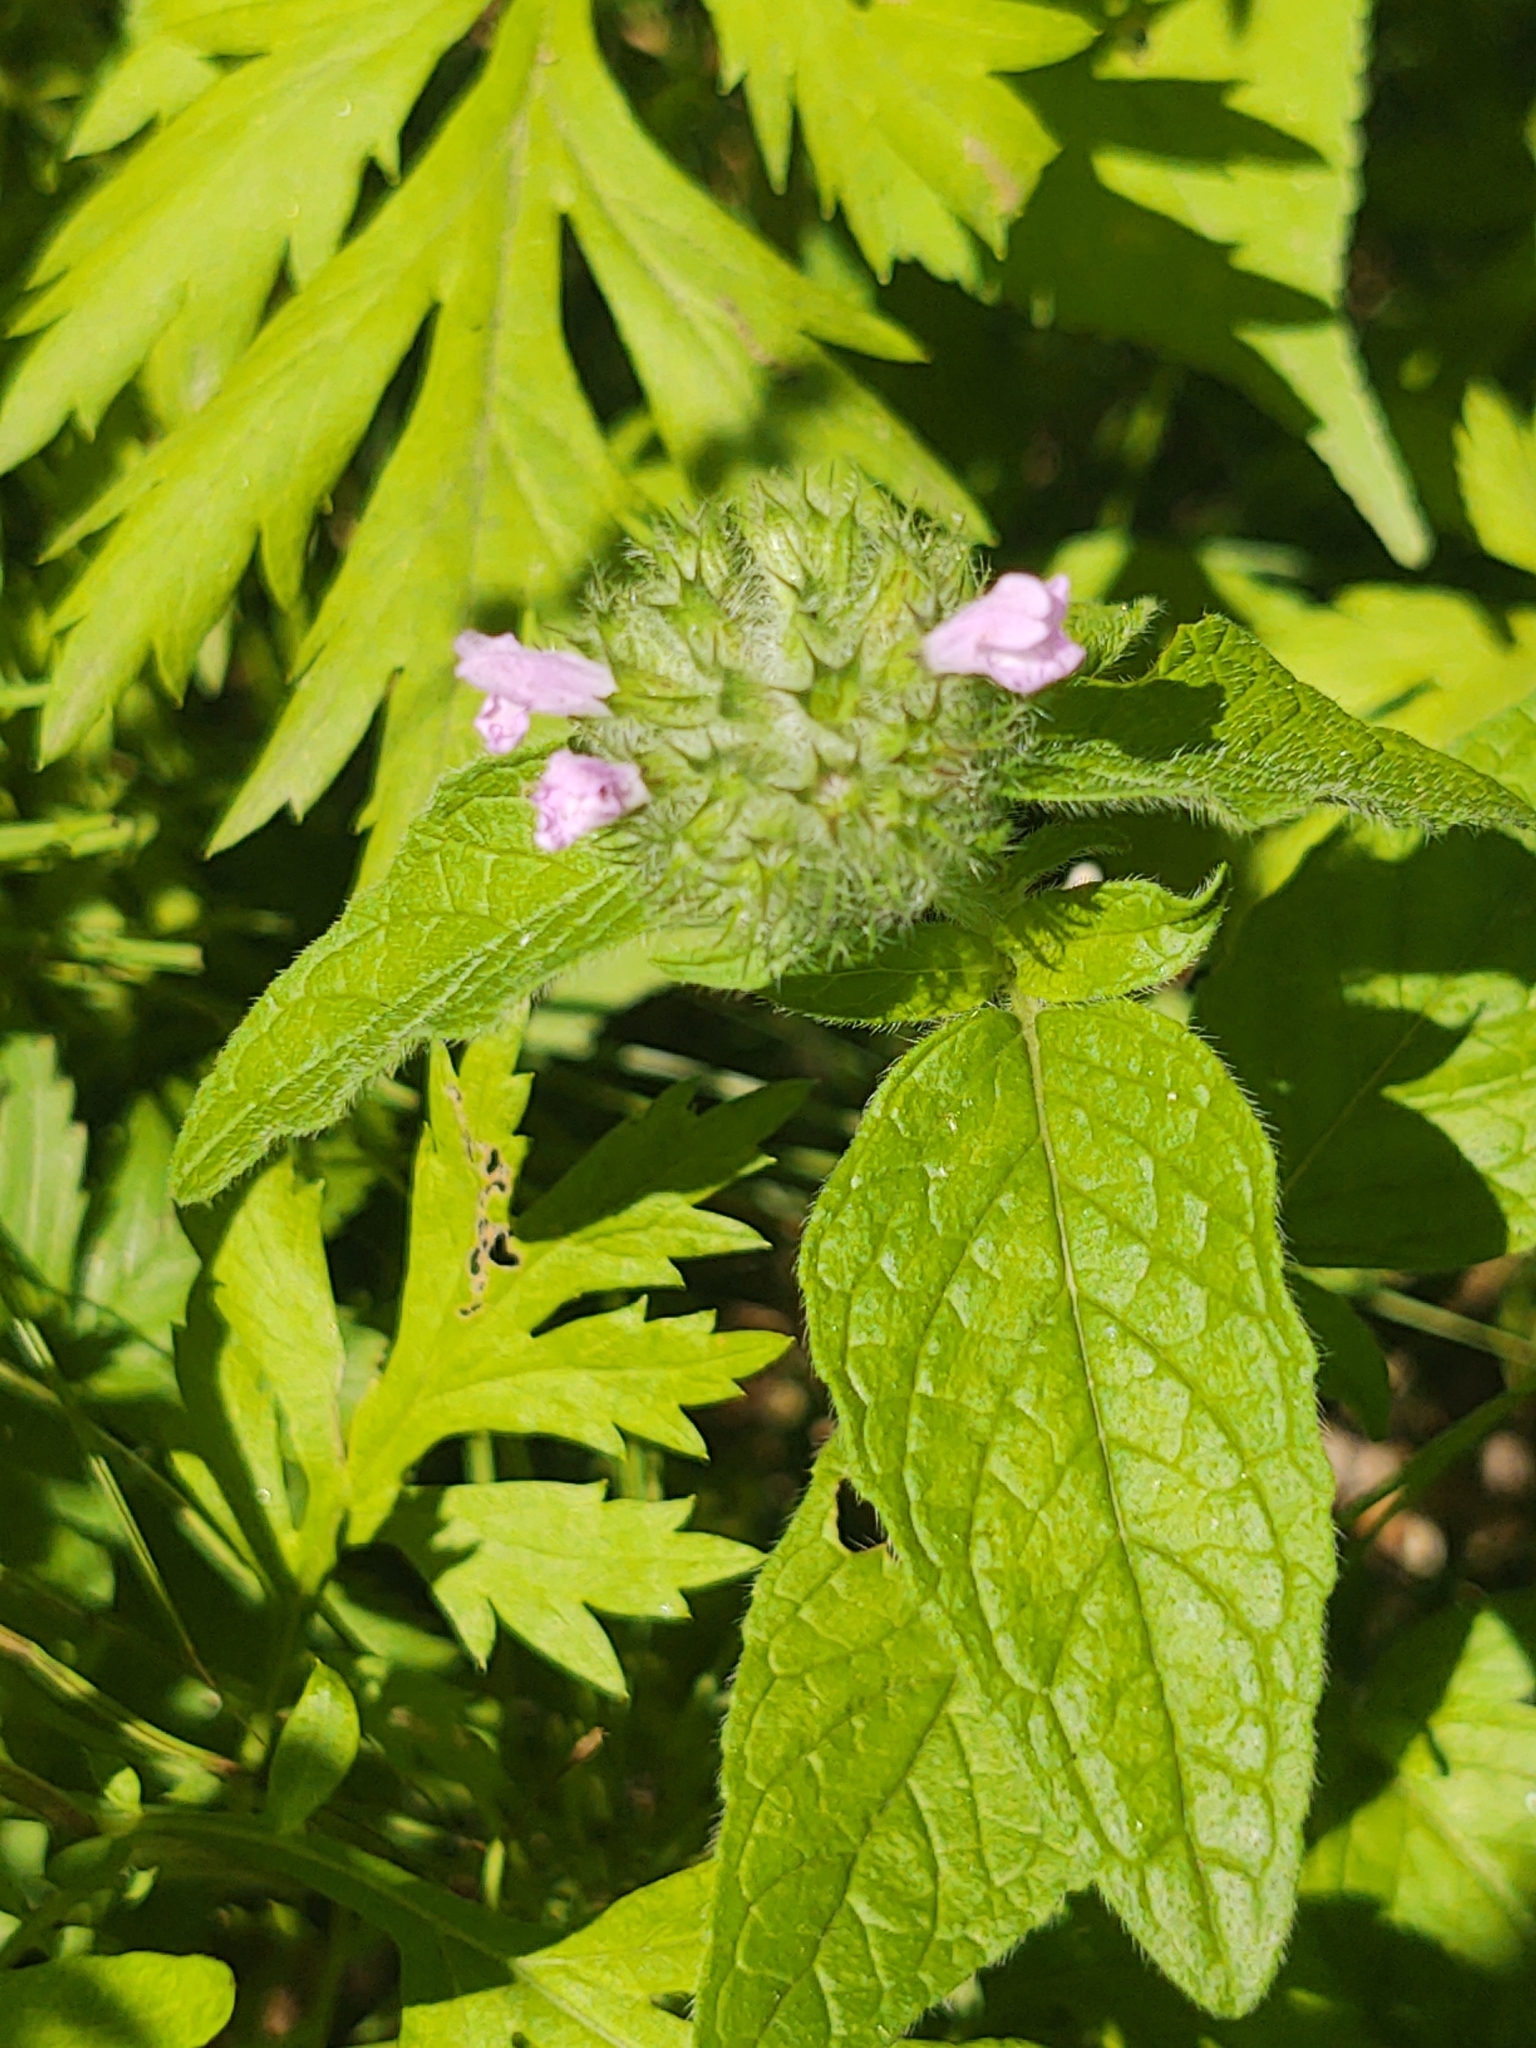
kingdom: Plantae
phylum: Tracheophyta
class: Magnoliopsida
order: Lamiales
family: Lamiaceae
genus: Clinopodium
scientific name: Clinopodium vulgare
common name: Wild basil
